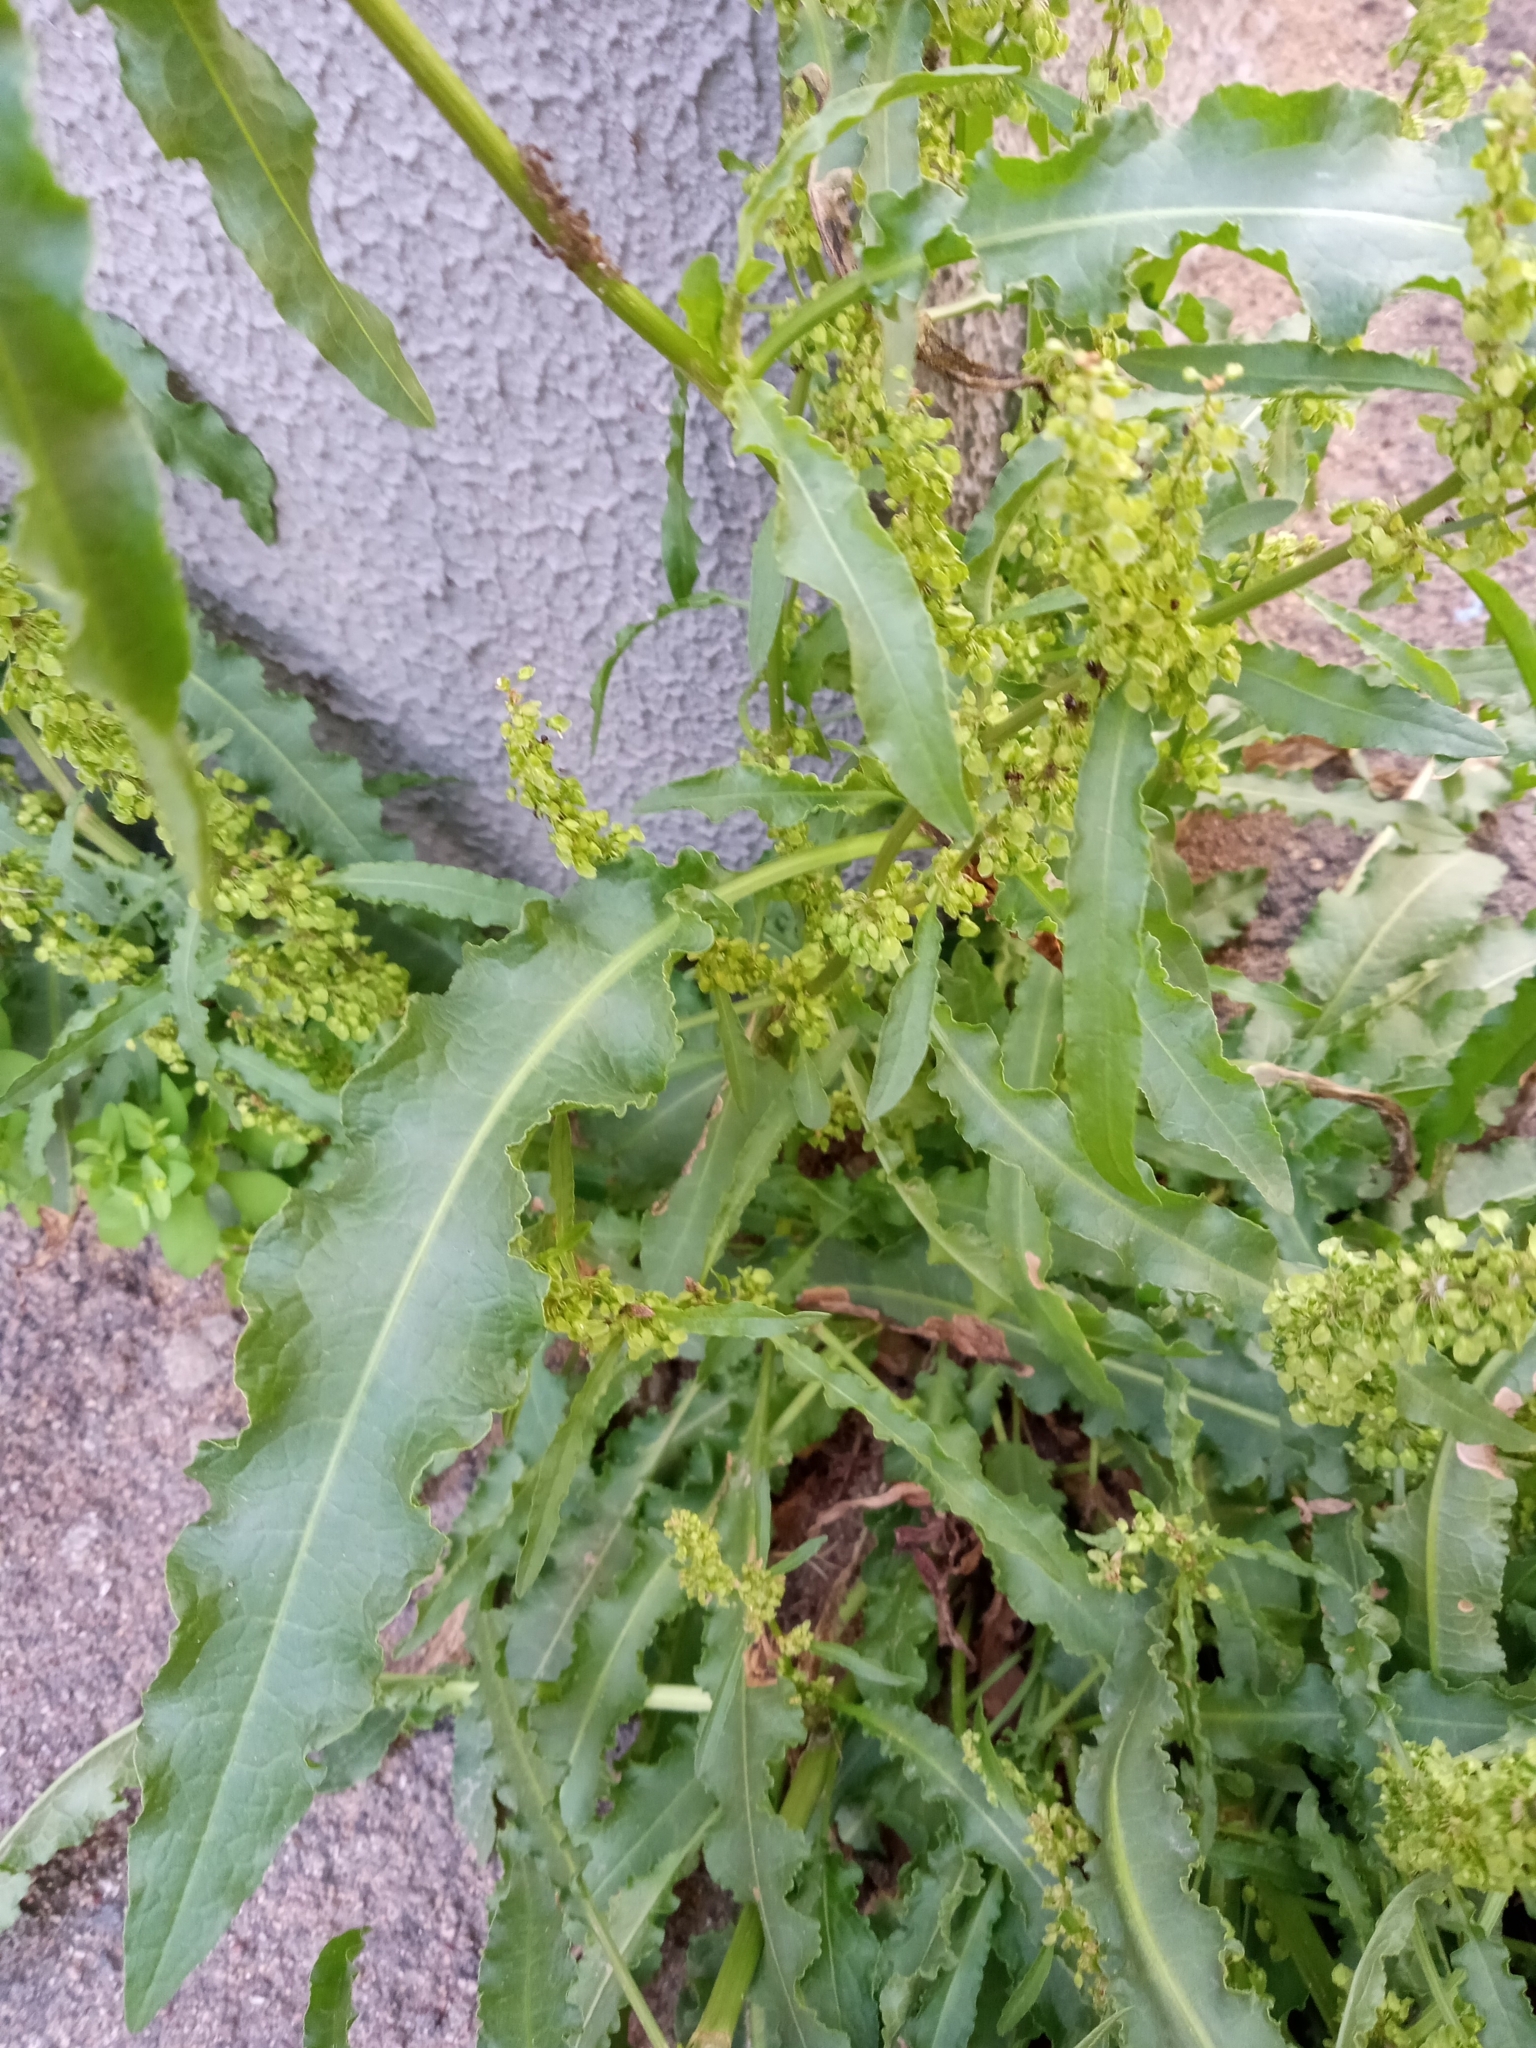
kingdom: Plantae
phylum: Tracheophyta
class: Magnoliopsida
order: Caryophyllales
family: Polygonaceae
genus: Rumex
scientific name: Rumex crispus
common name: Curled dock
